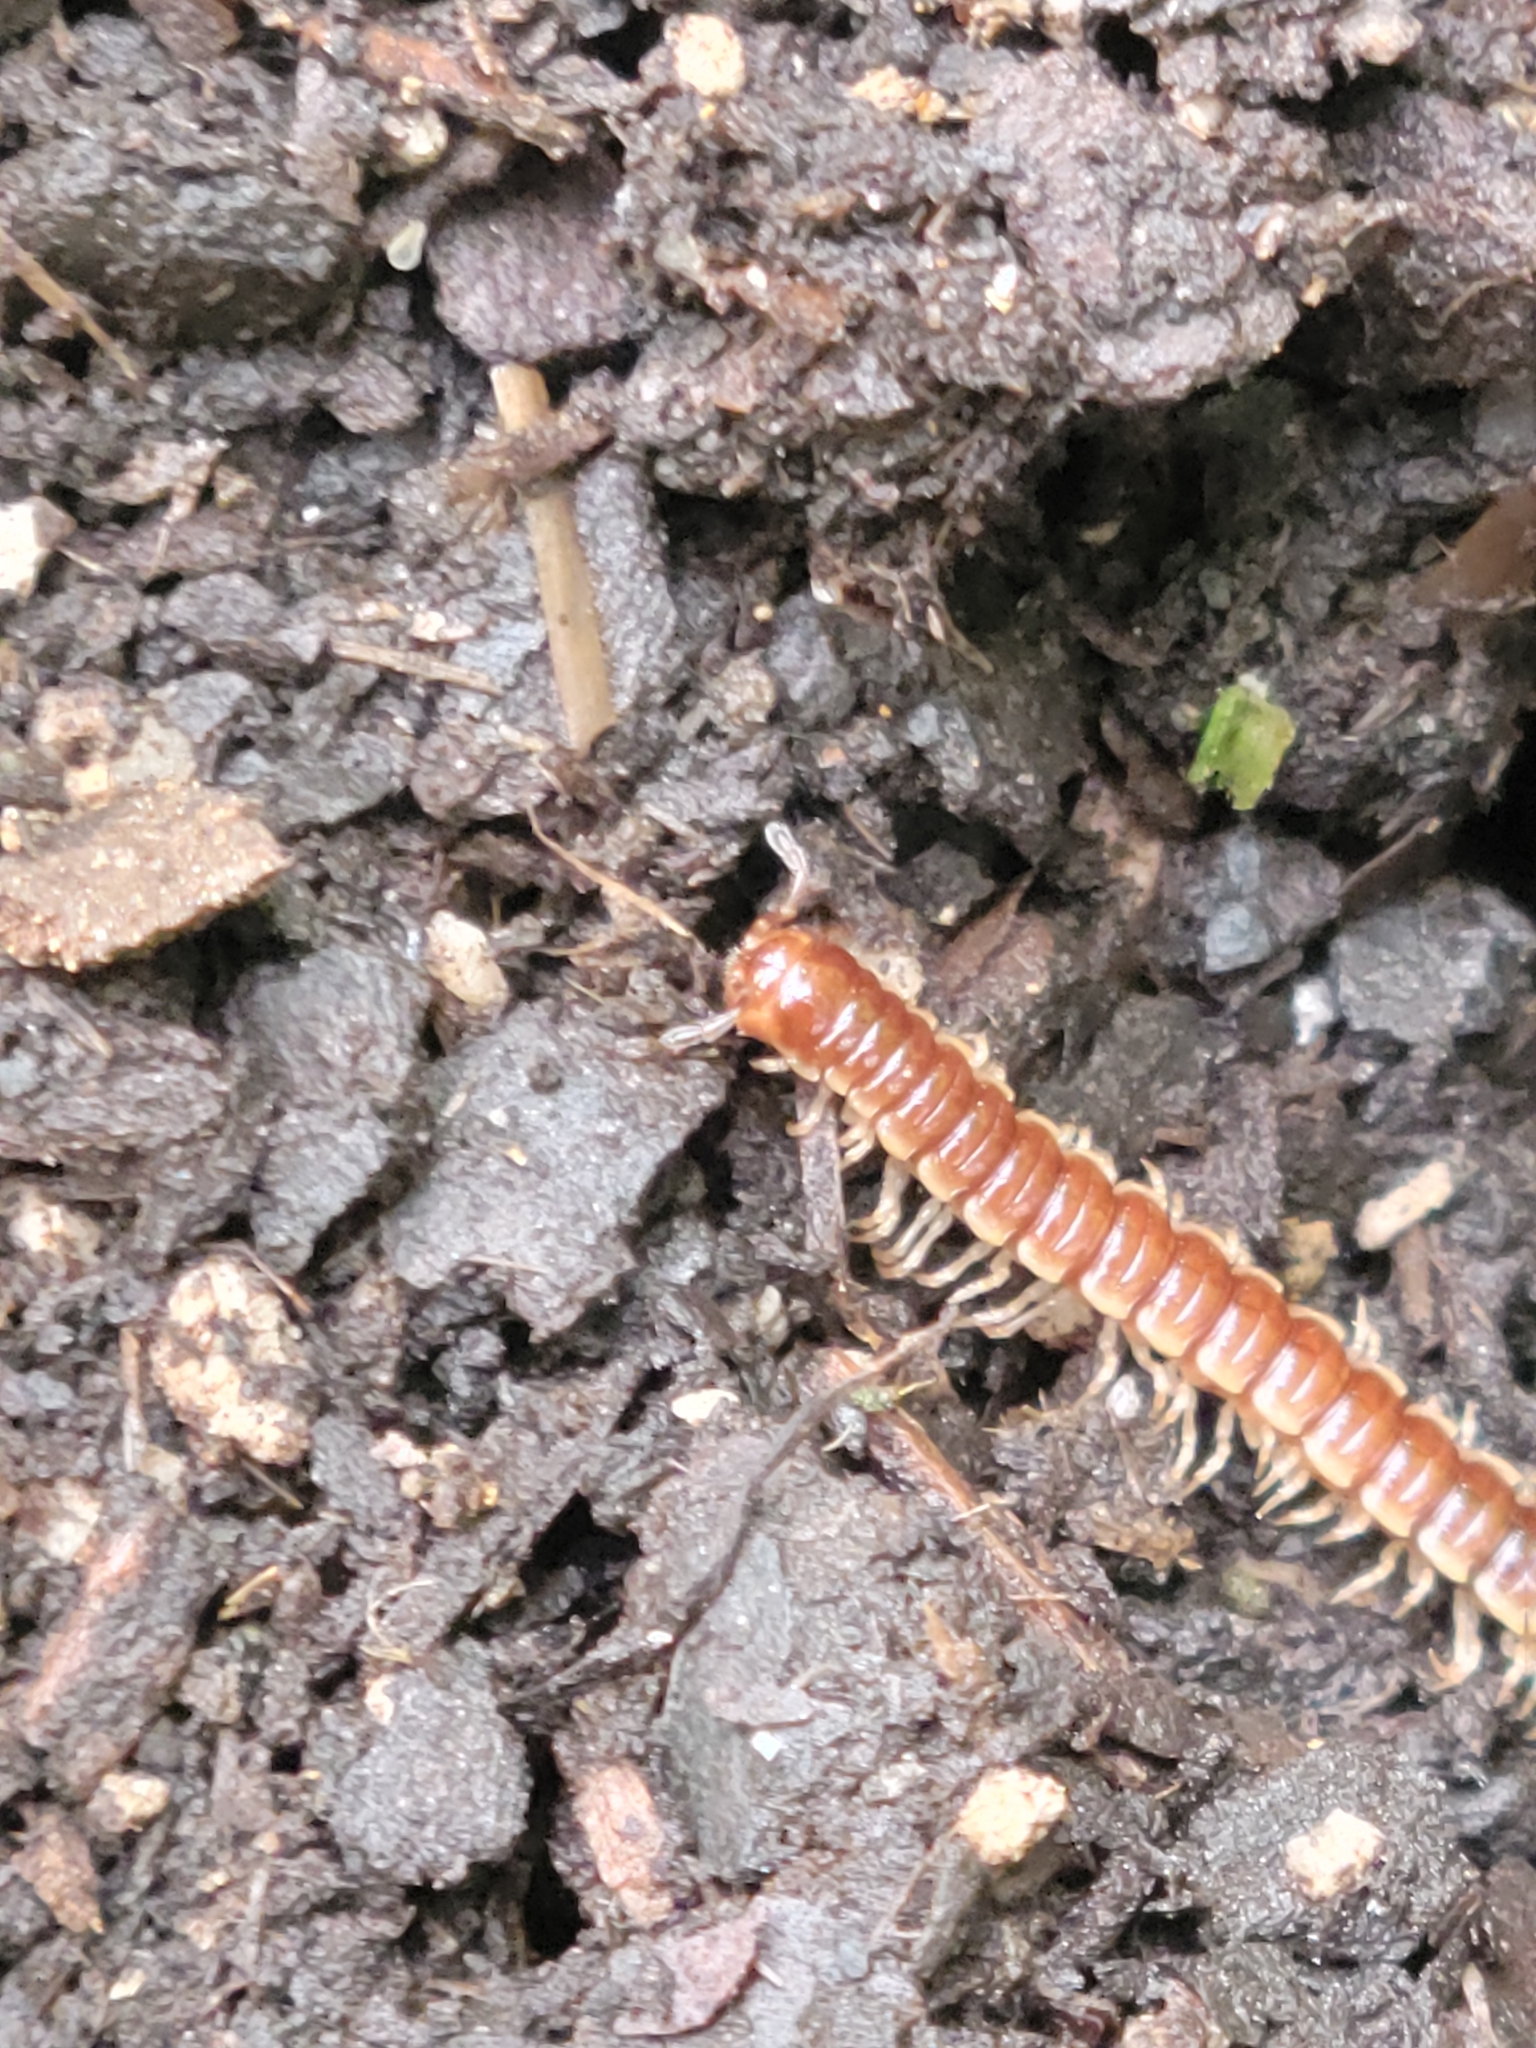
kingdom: Animalia
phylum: Arthropoda
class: Diplopoda
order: Polydesmida
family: Paradoxosomatidae
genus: Oxidus
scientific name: Oxidus gracilis
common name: Greenhouse millipede
